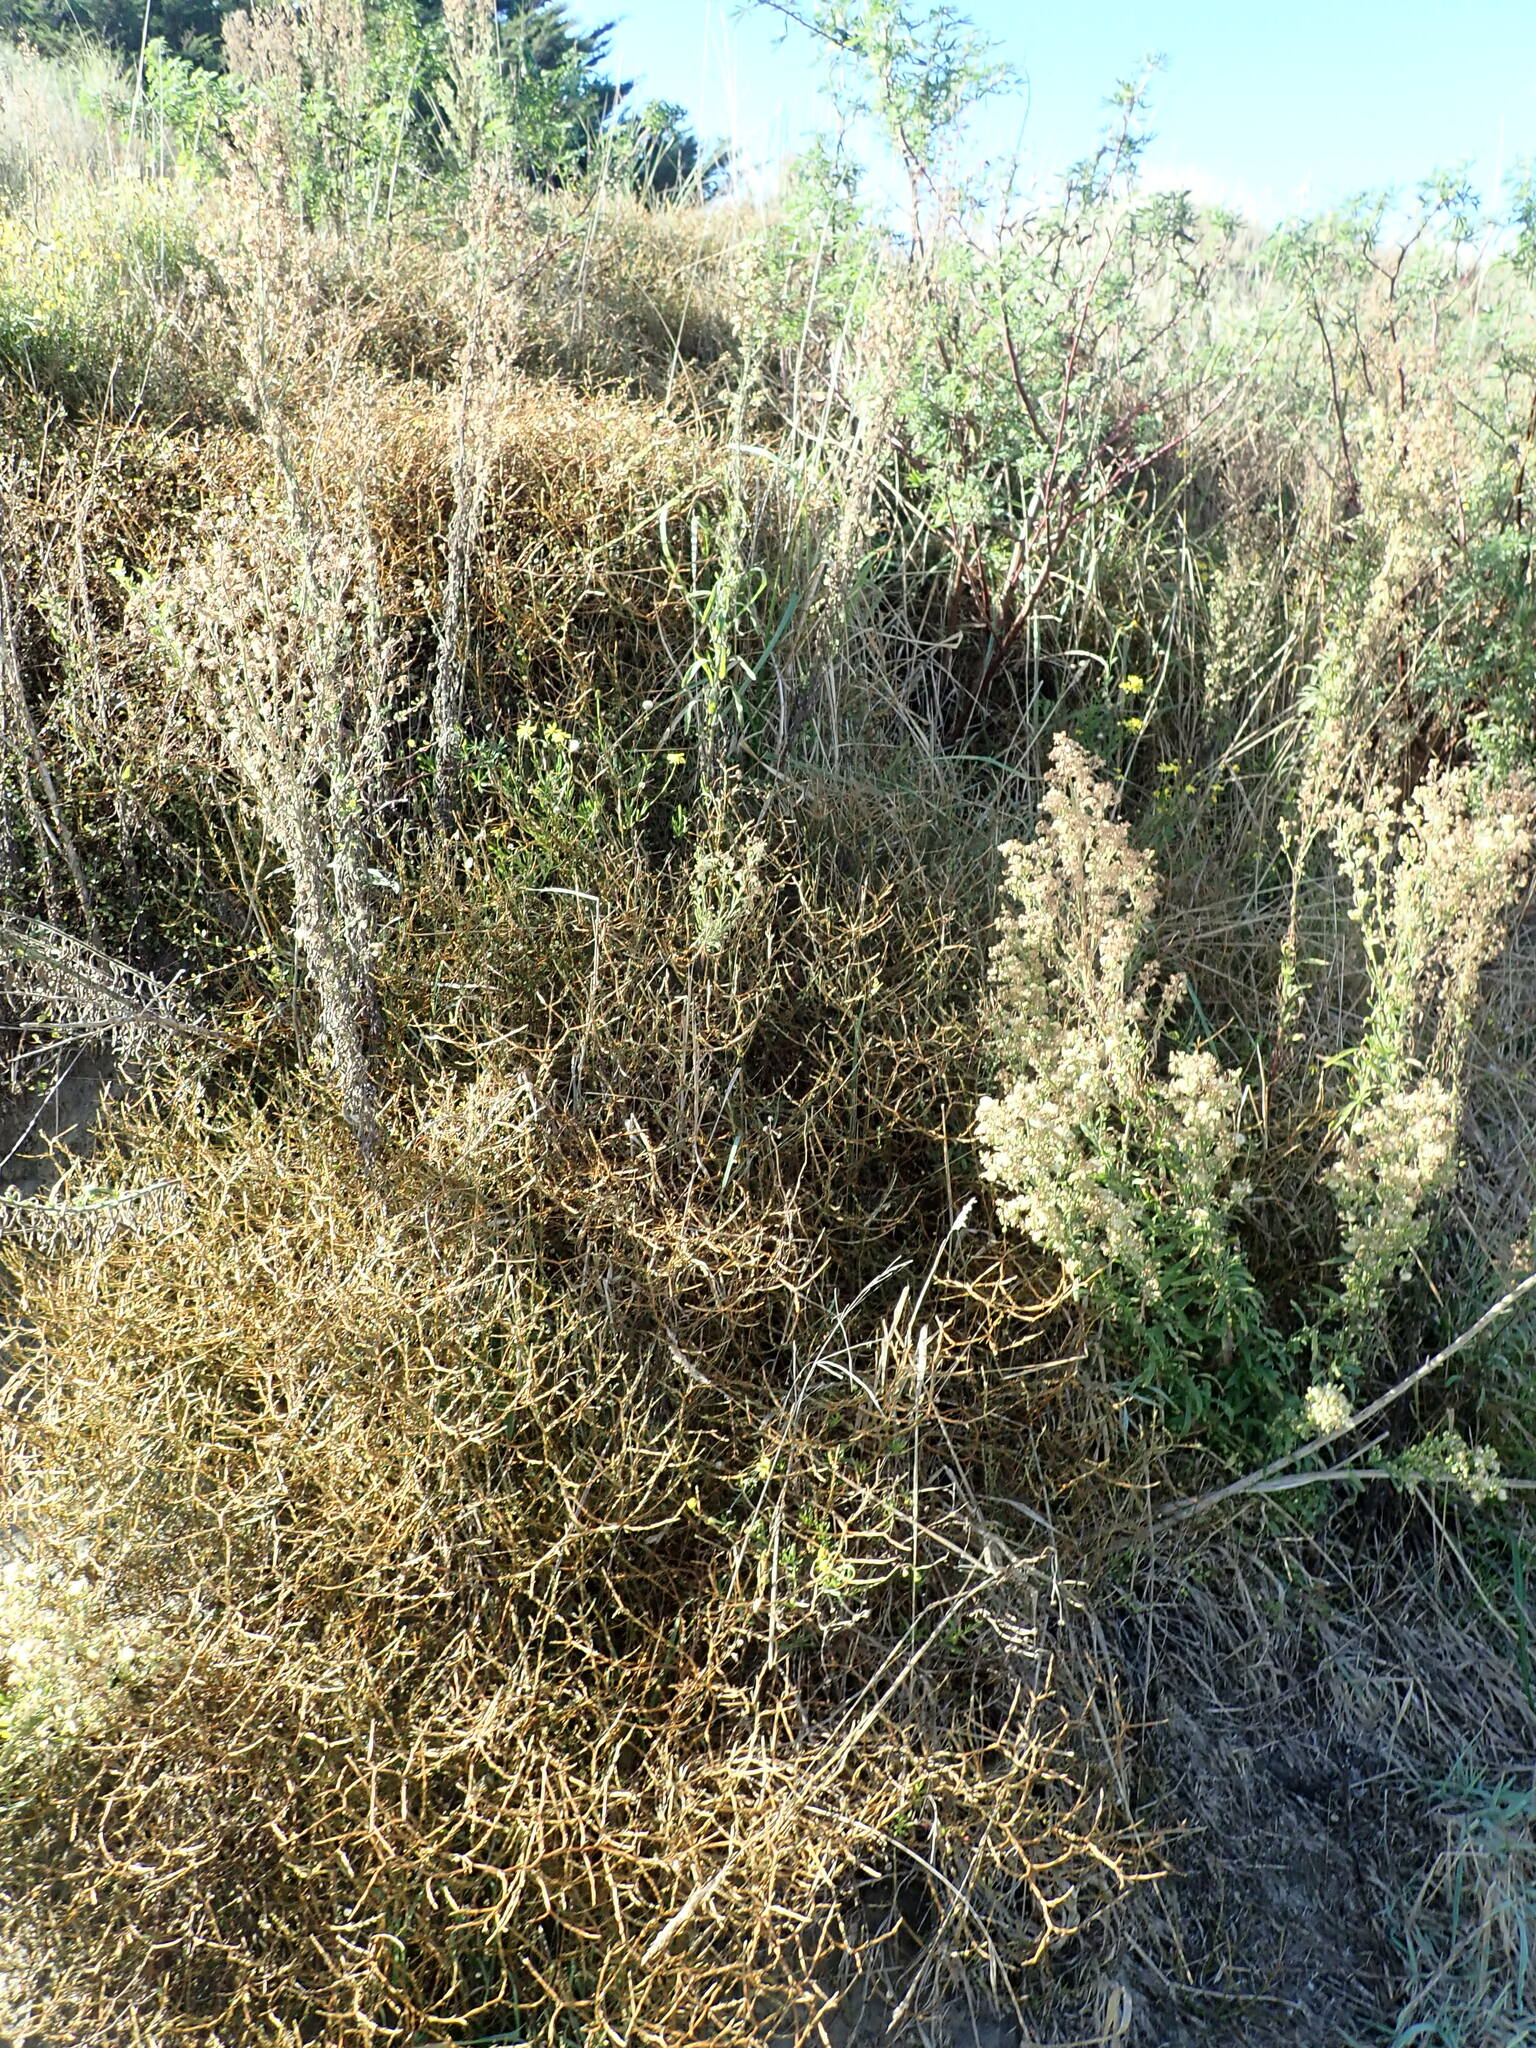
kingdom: Plantae
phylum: Tracheophyta
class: Magnoliopsida
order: Gentianales
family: Rubiaceae
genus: Coprosma
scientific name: Coprosma acerosa
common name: Sand coprosma
